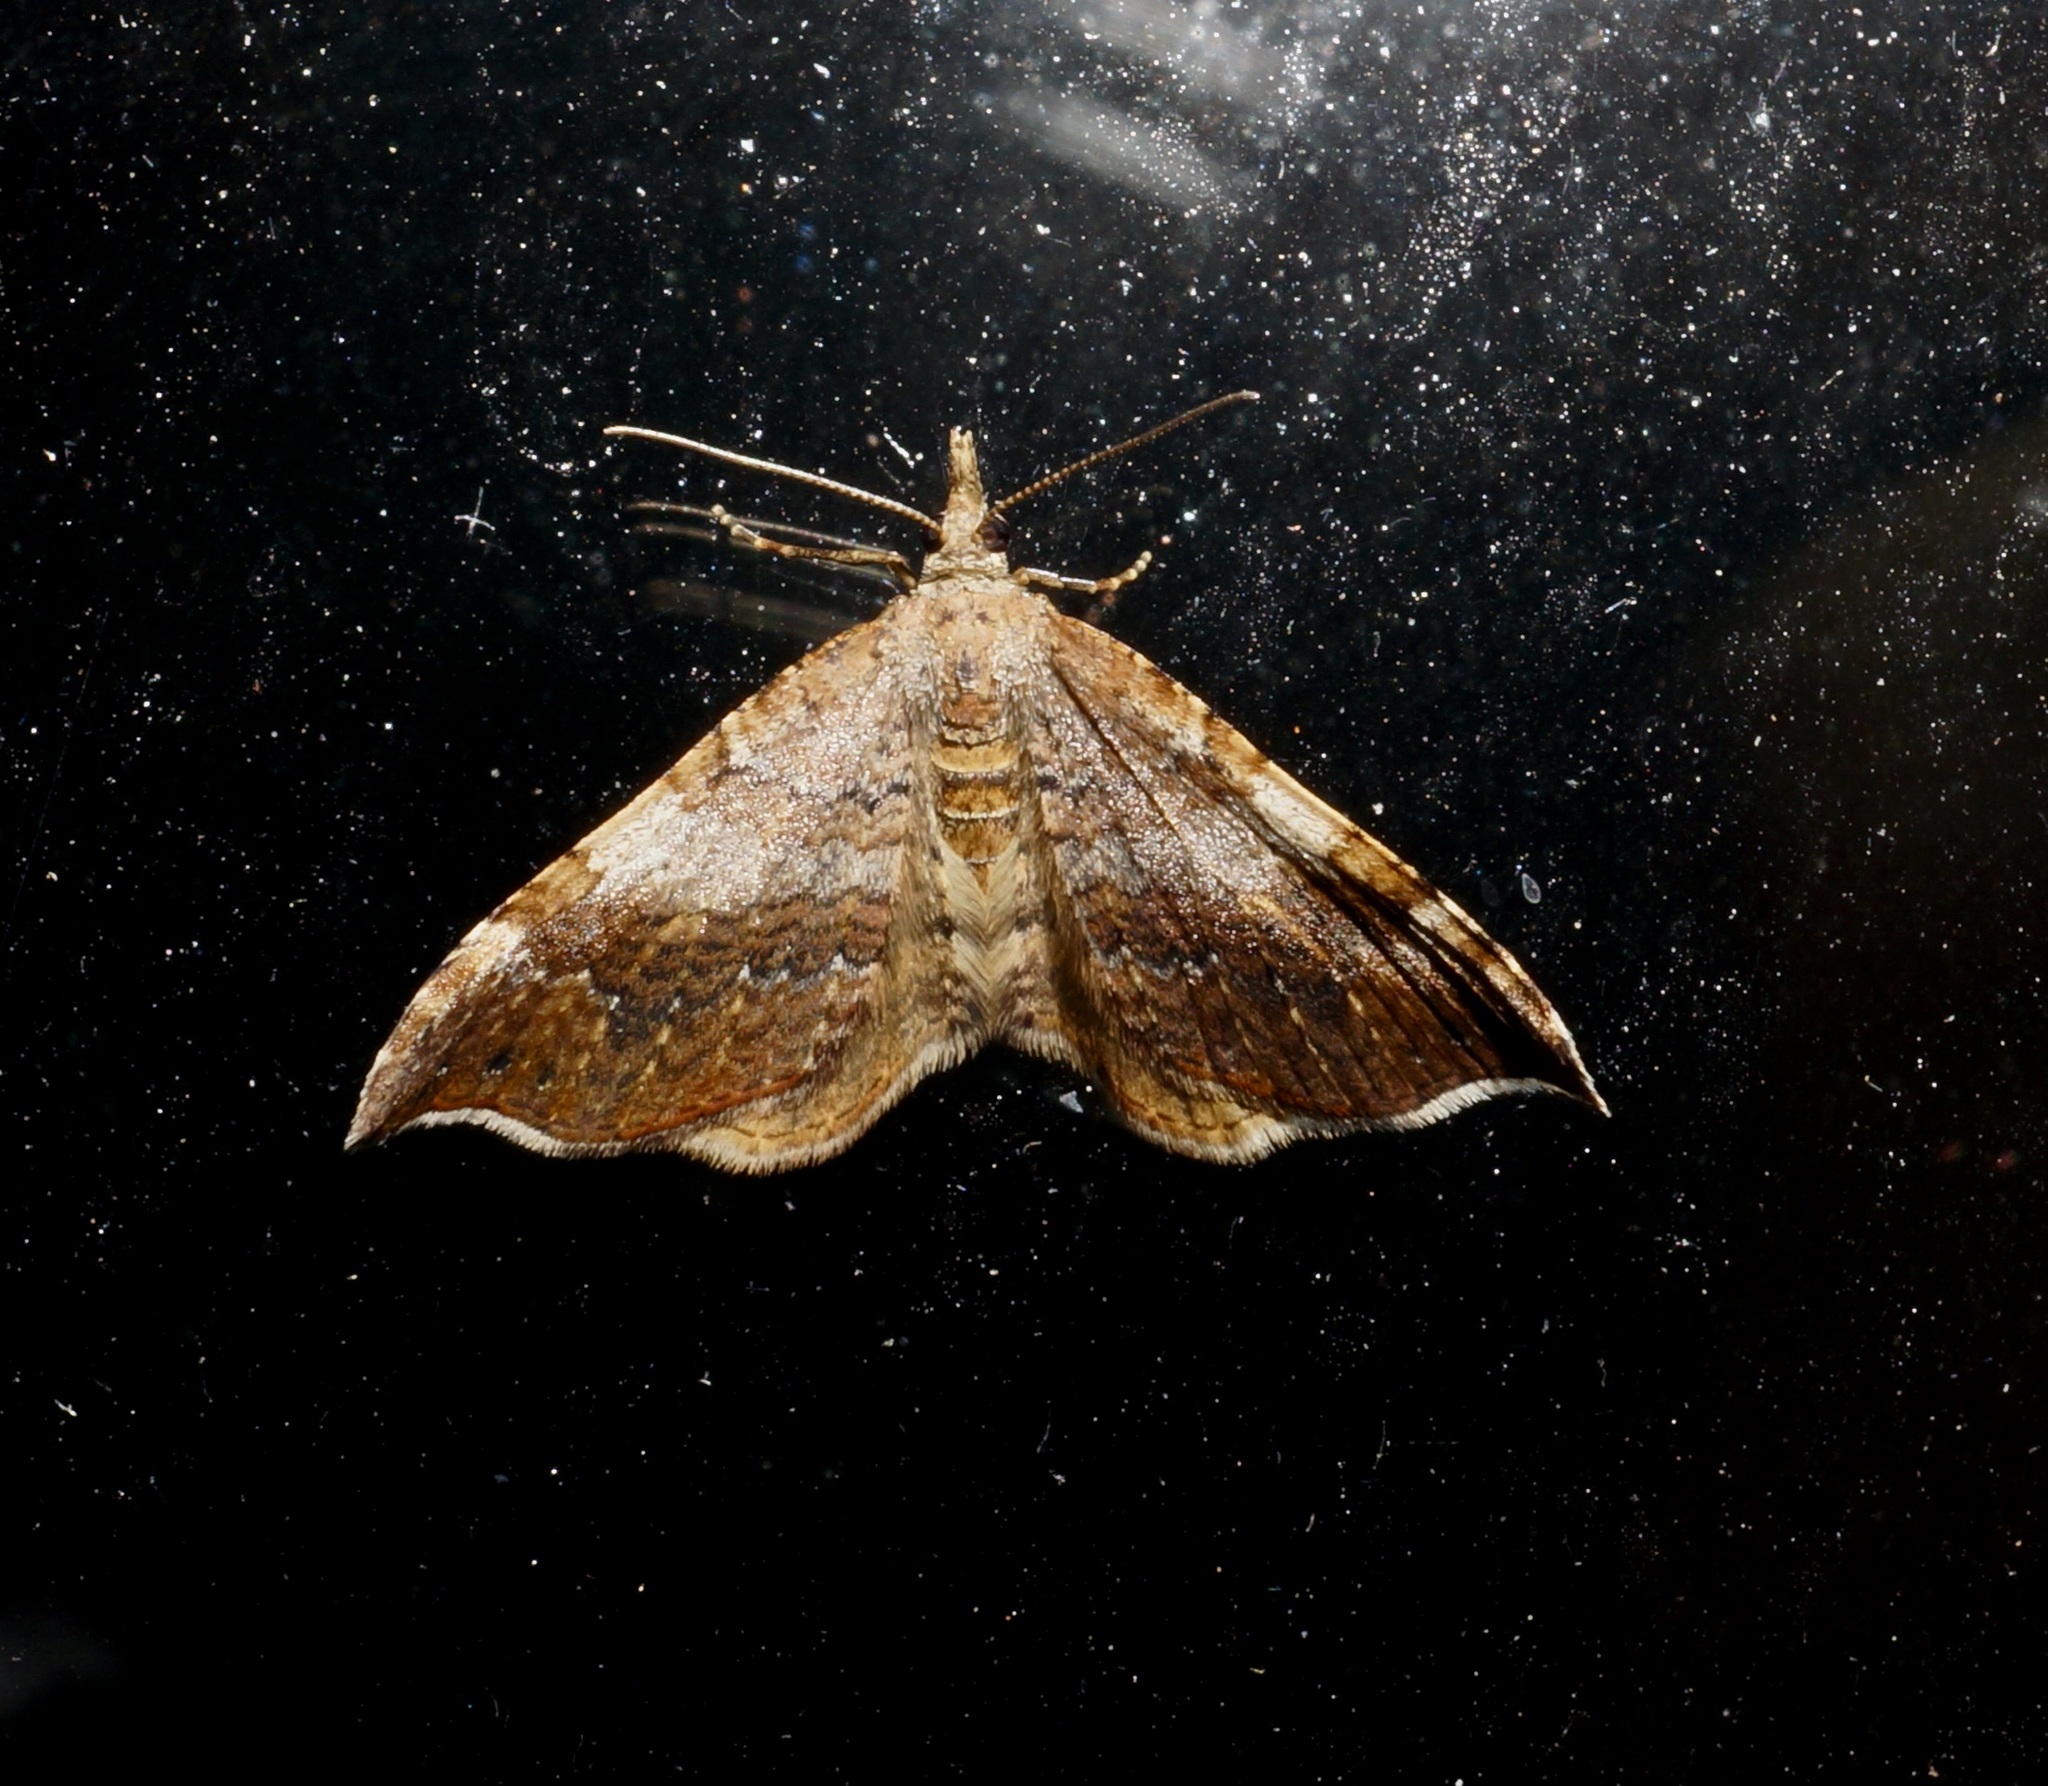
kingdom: Animalia
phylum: Arthropoda
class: Insecta
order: Lepidoptera
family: Geometridae
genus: Homodotis
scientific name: Homodotis megaspilata
